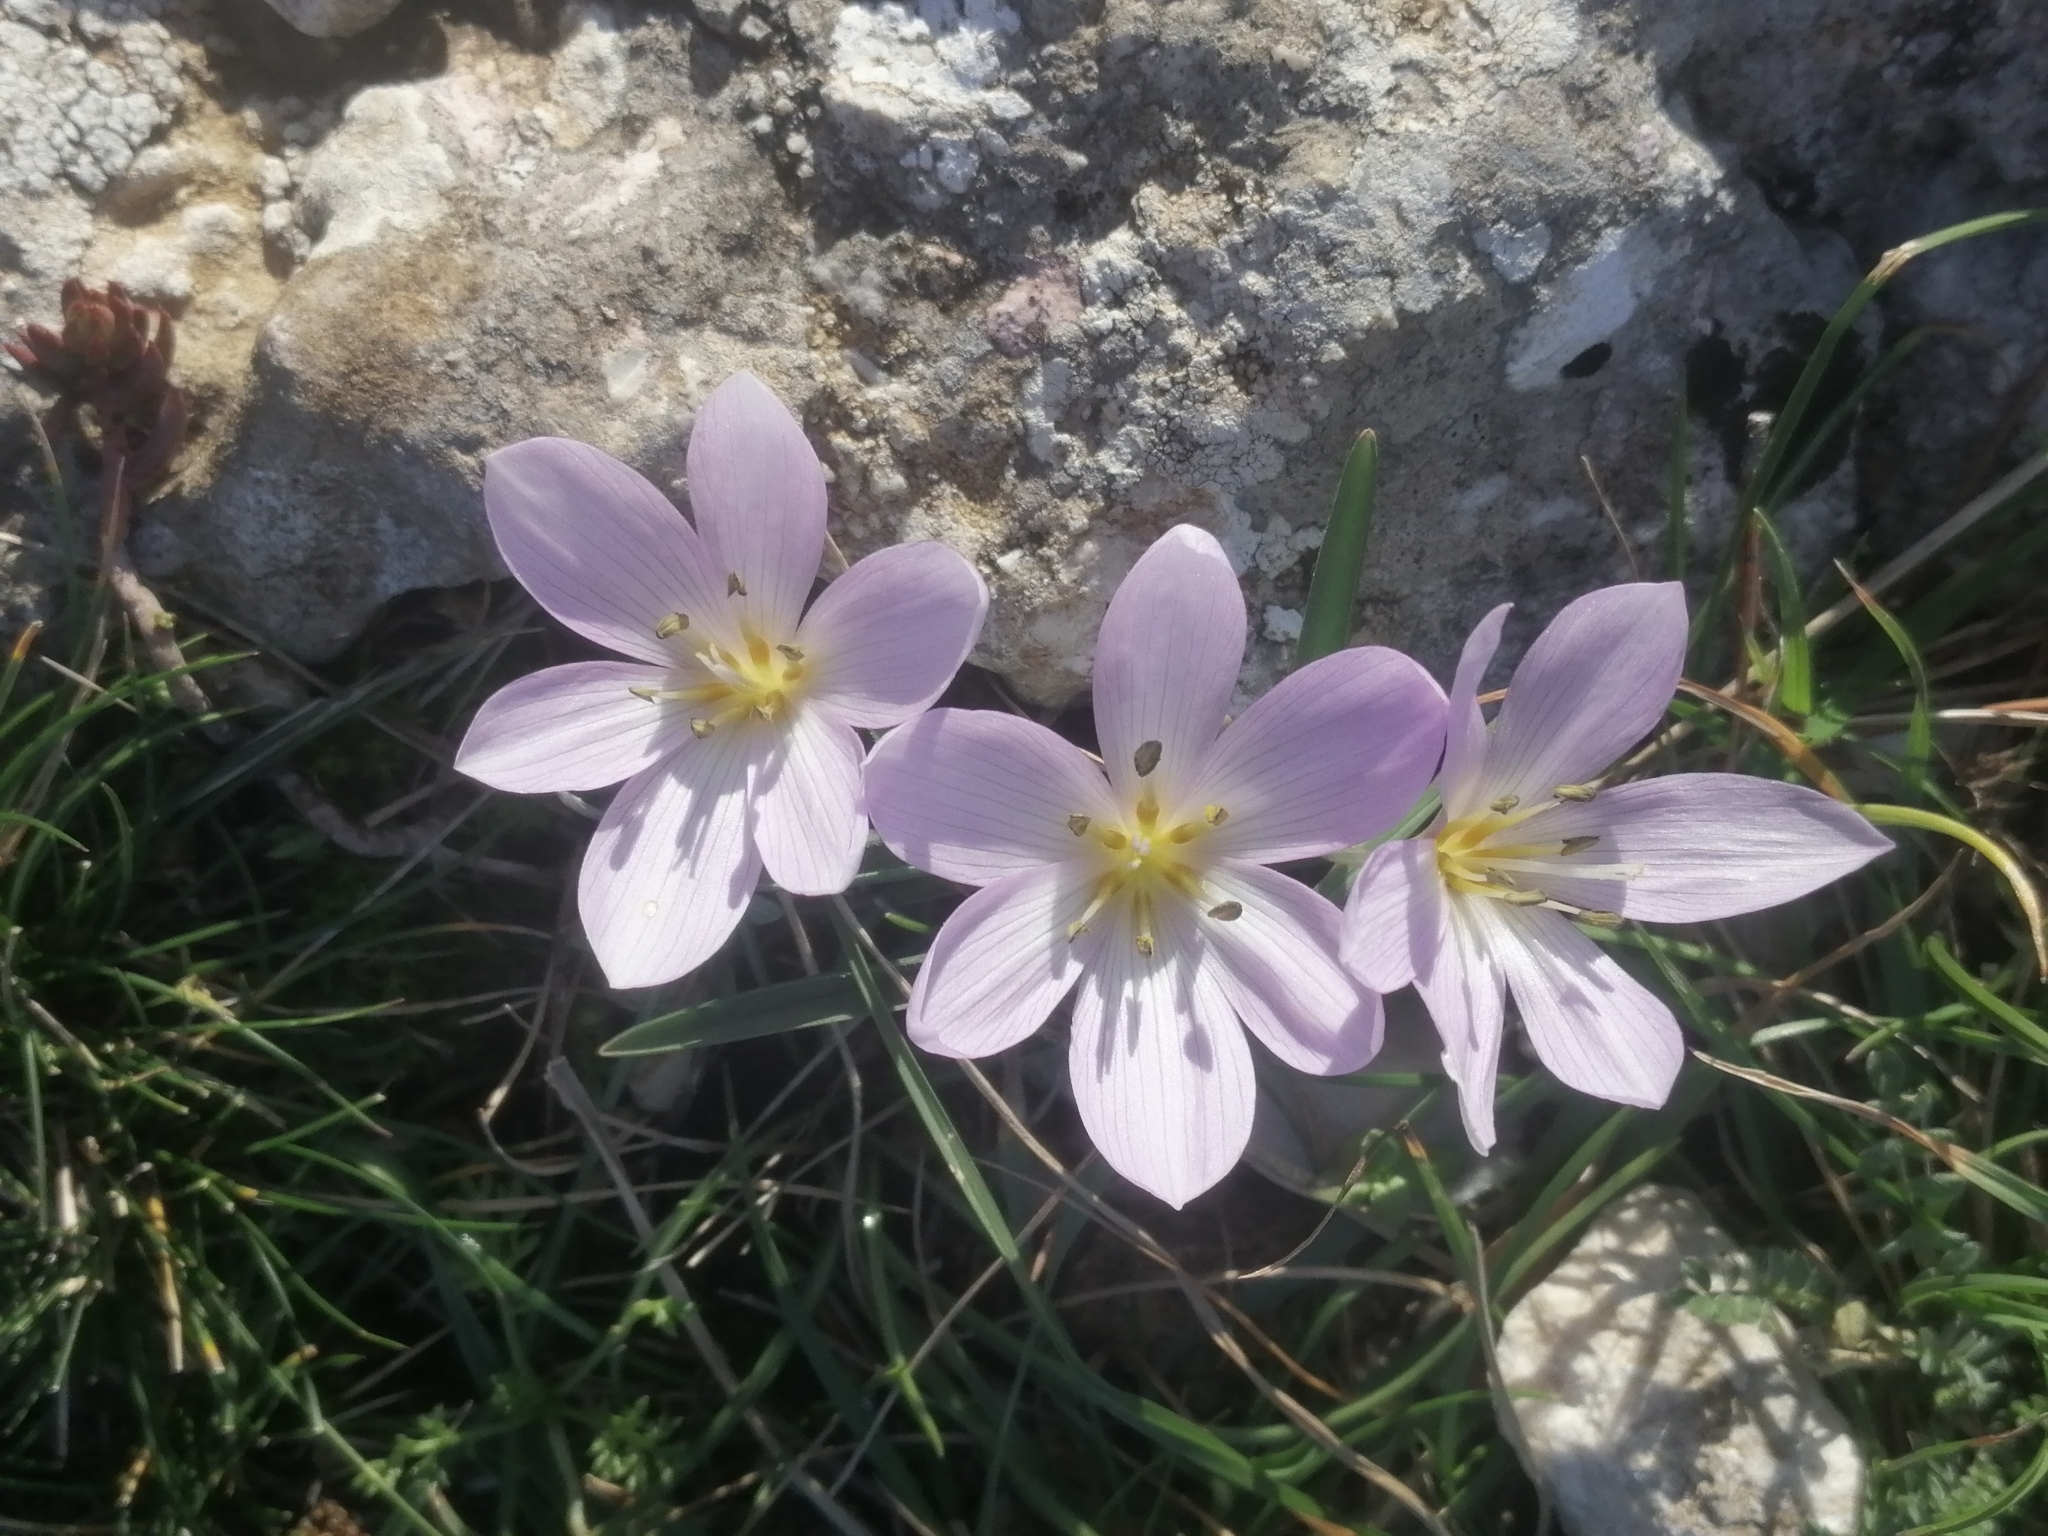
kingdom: Plantae
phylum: Tracheophyta
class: Liliopsida
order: Liliales
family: Colchicaceae
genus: Colchicum
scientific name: Colchicum hungaricum
